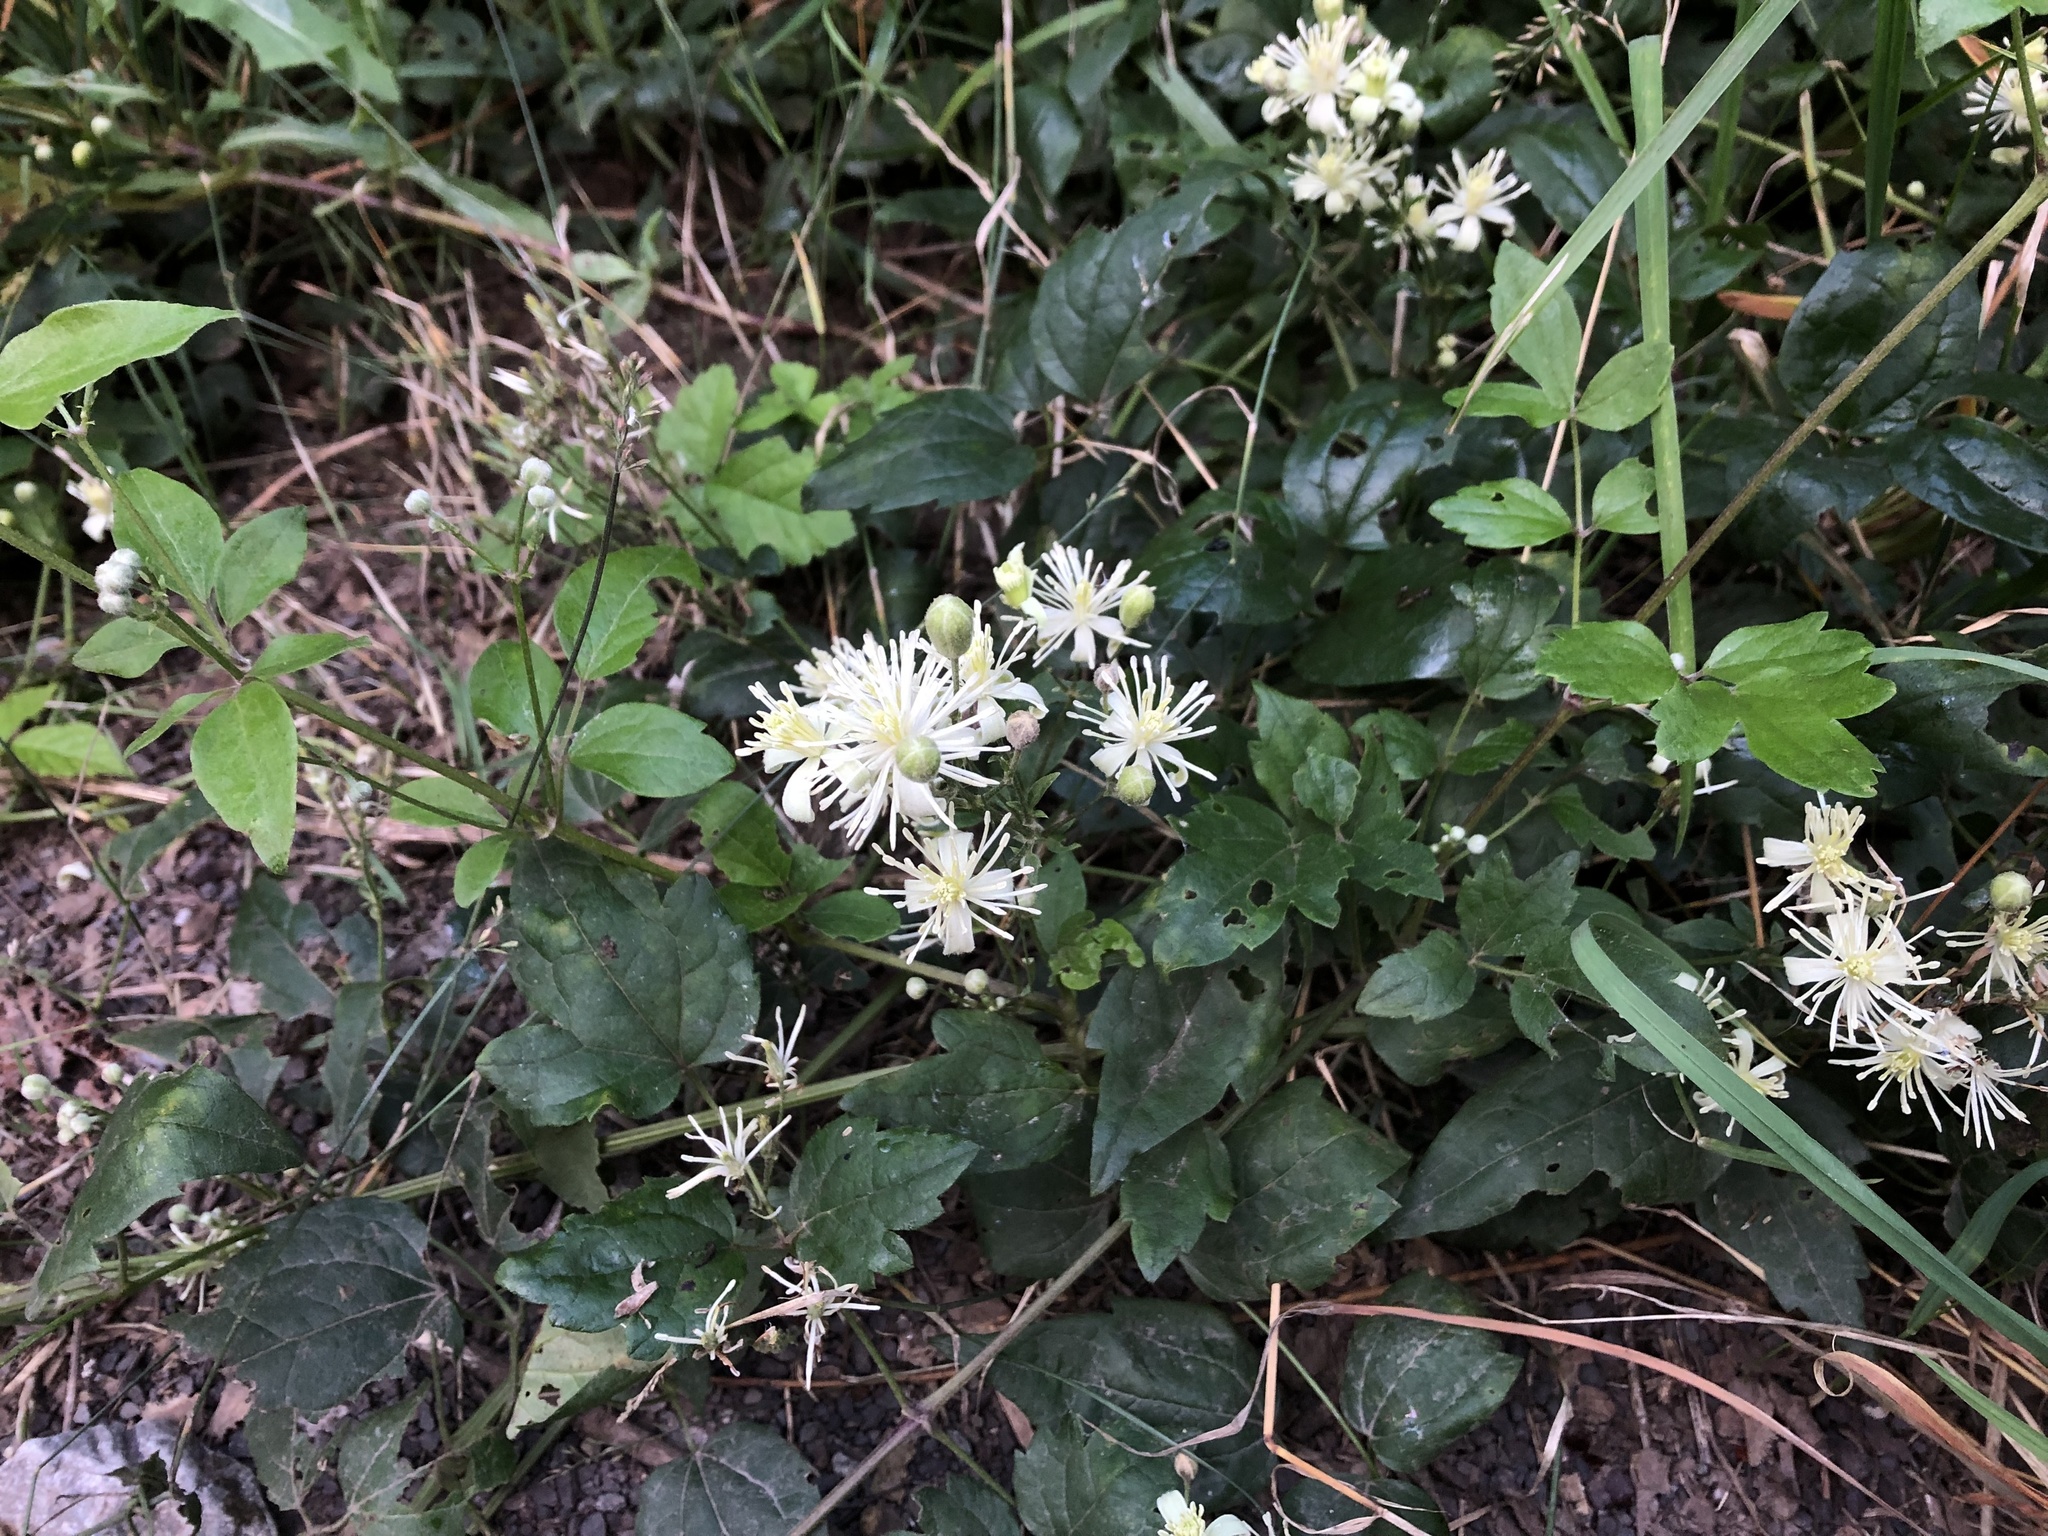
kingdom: Plantae
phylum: Tracheophyta
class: Magnoliopsida
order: Ranunculales
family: Ranunculaceae
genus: Clematis
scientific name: Clematis vitalba
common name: Evergreen clematis
